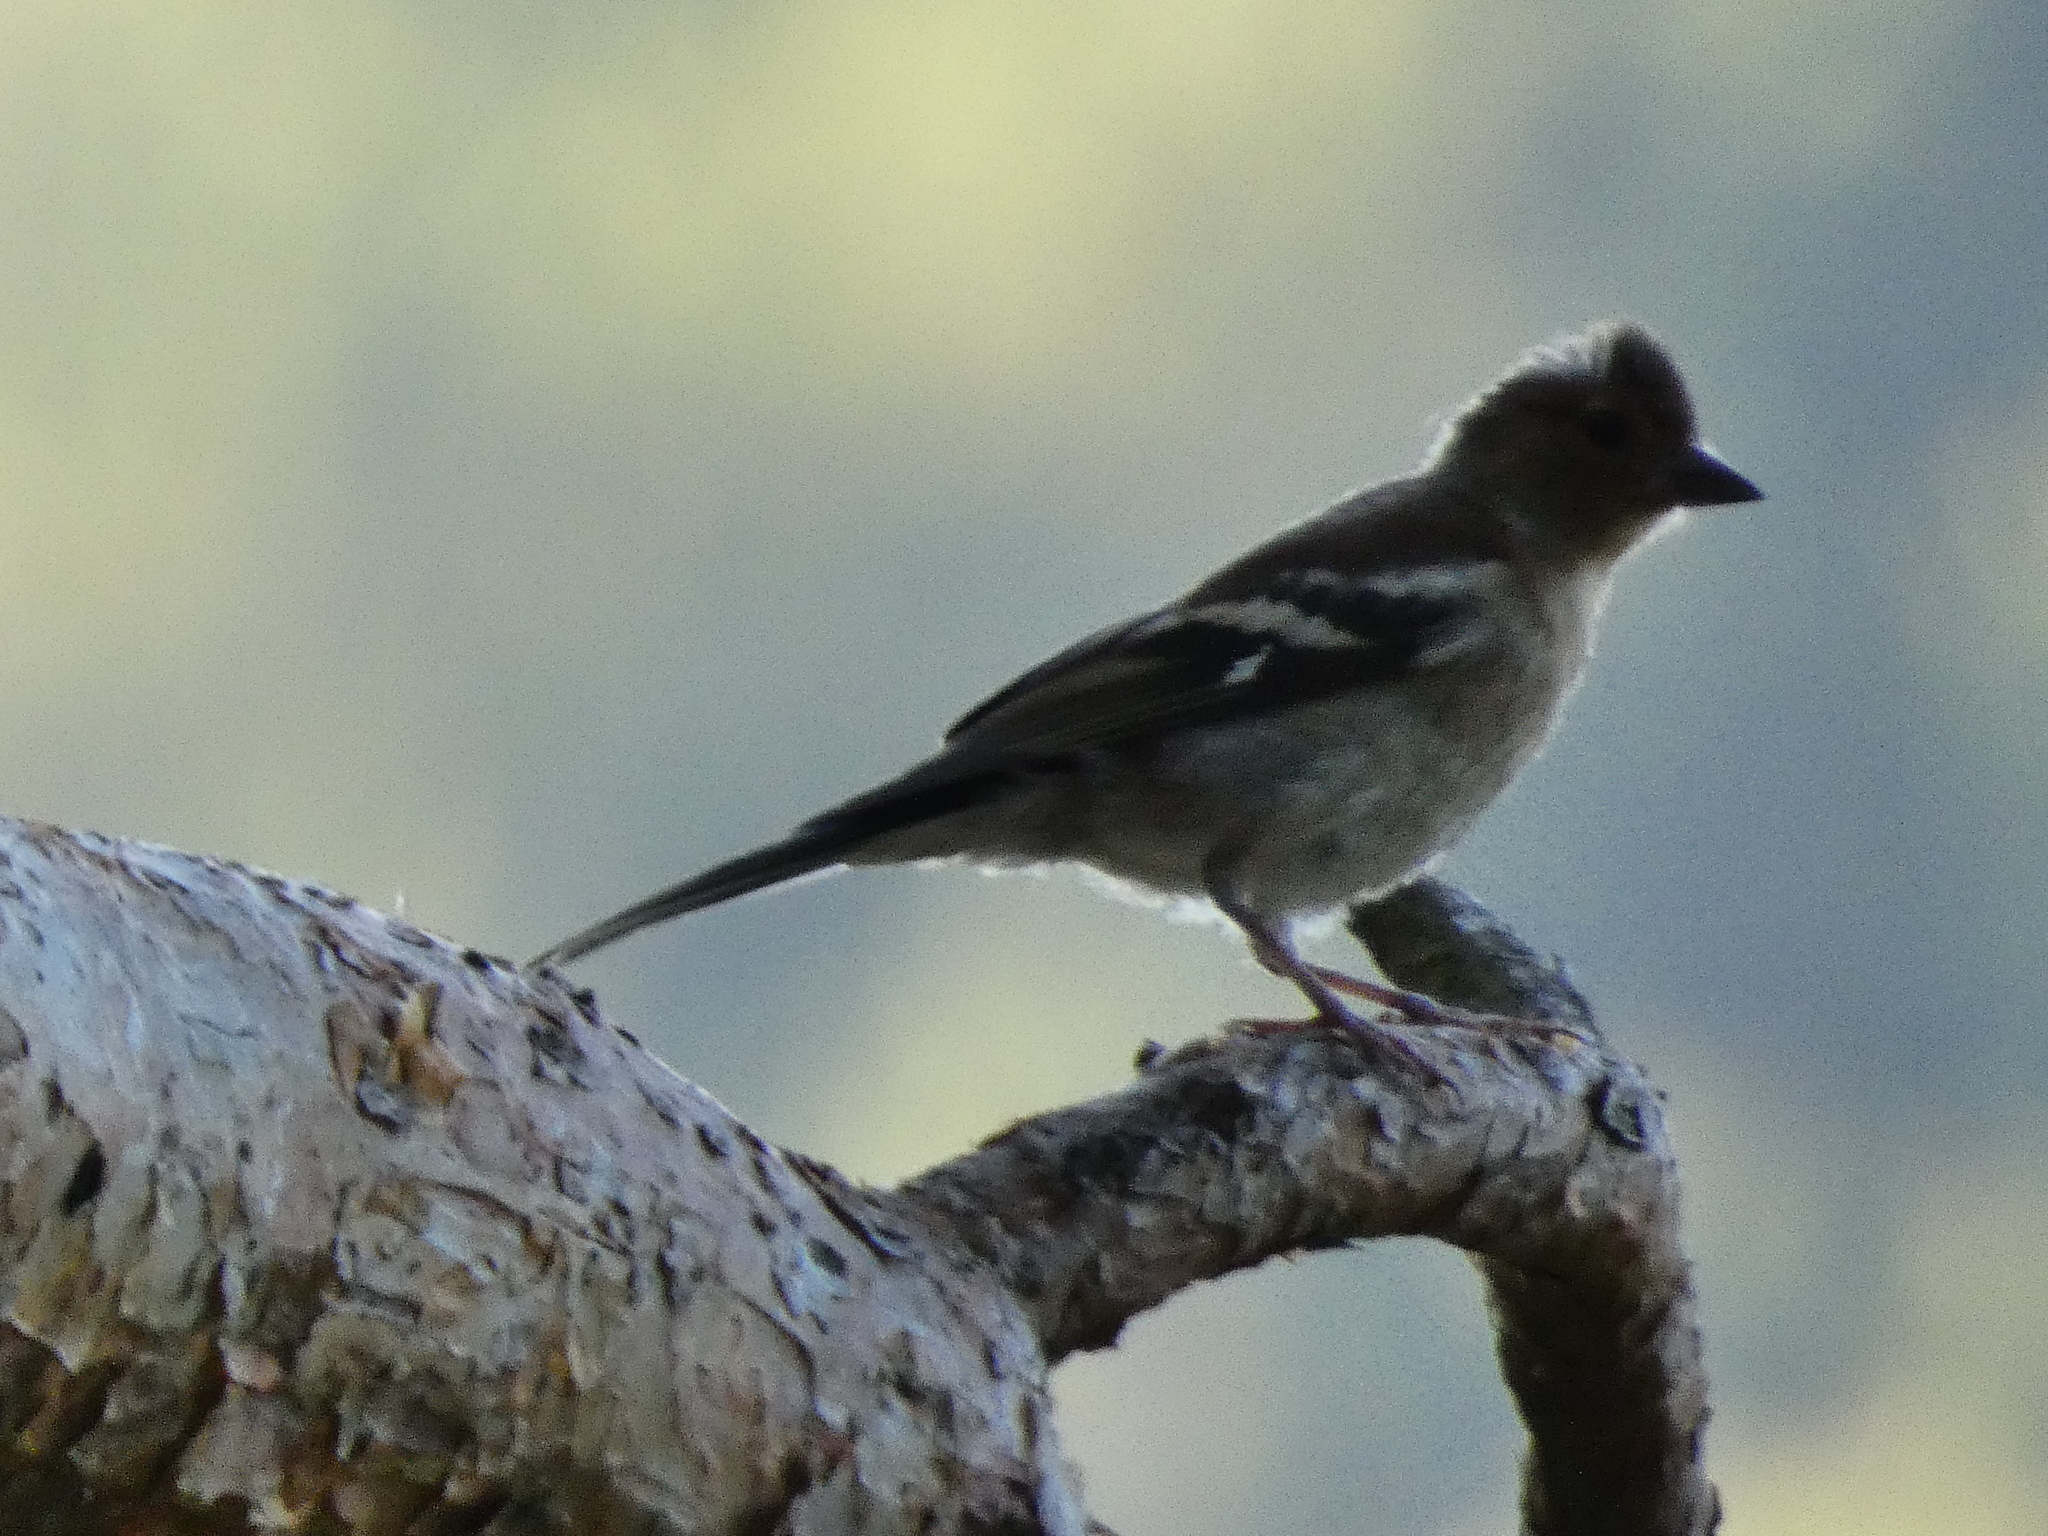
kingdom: Animalia
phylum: Chordata
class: Aves
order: Passeriformes
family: Fringillidae
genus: Fringilla
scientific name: Fringilla coelebs
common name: Common chaffinch
